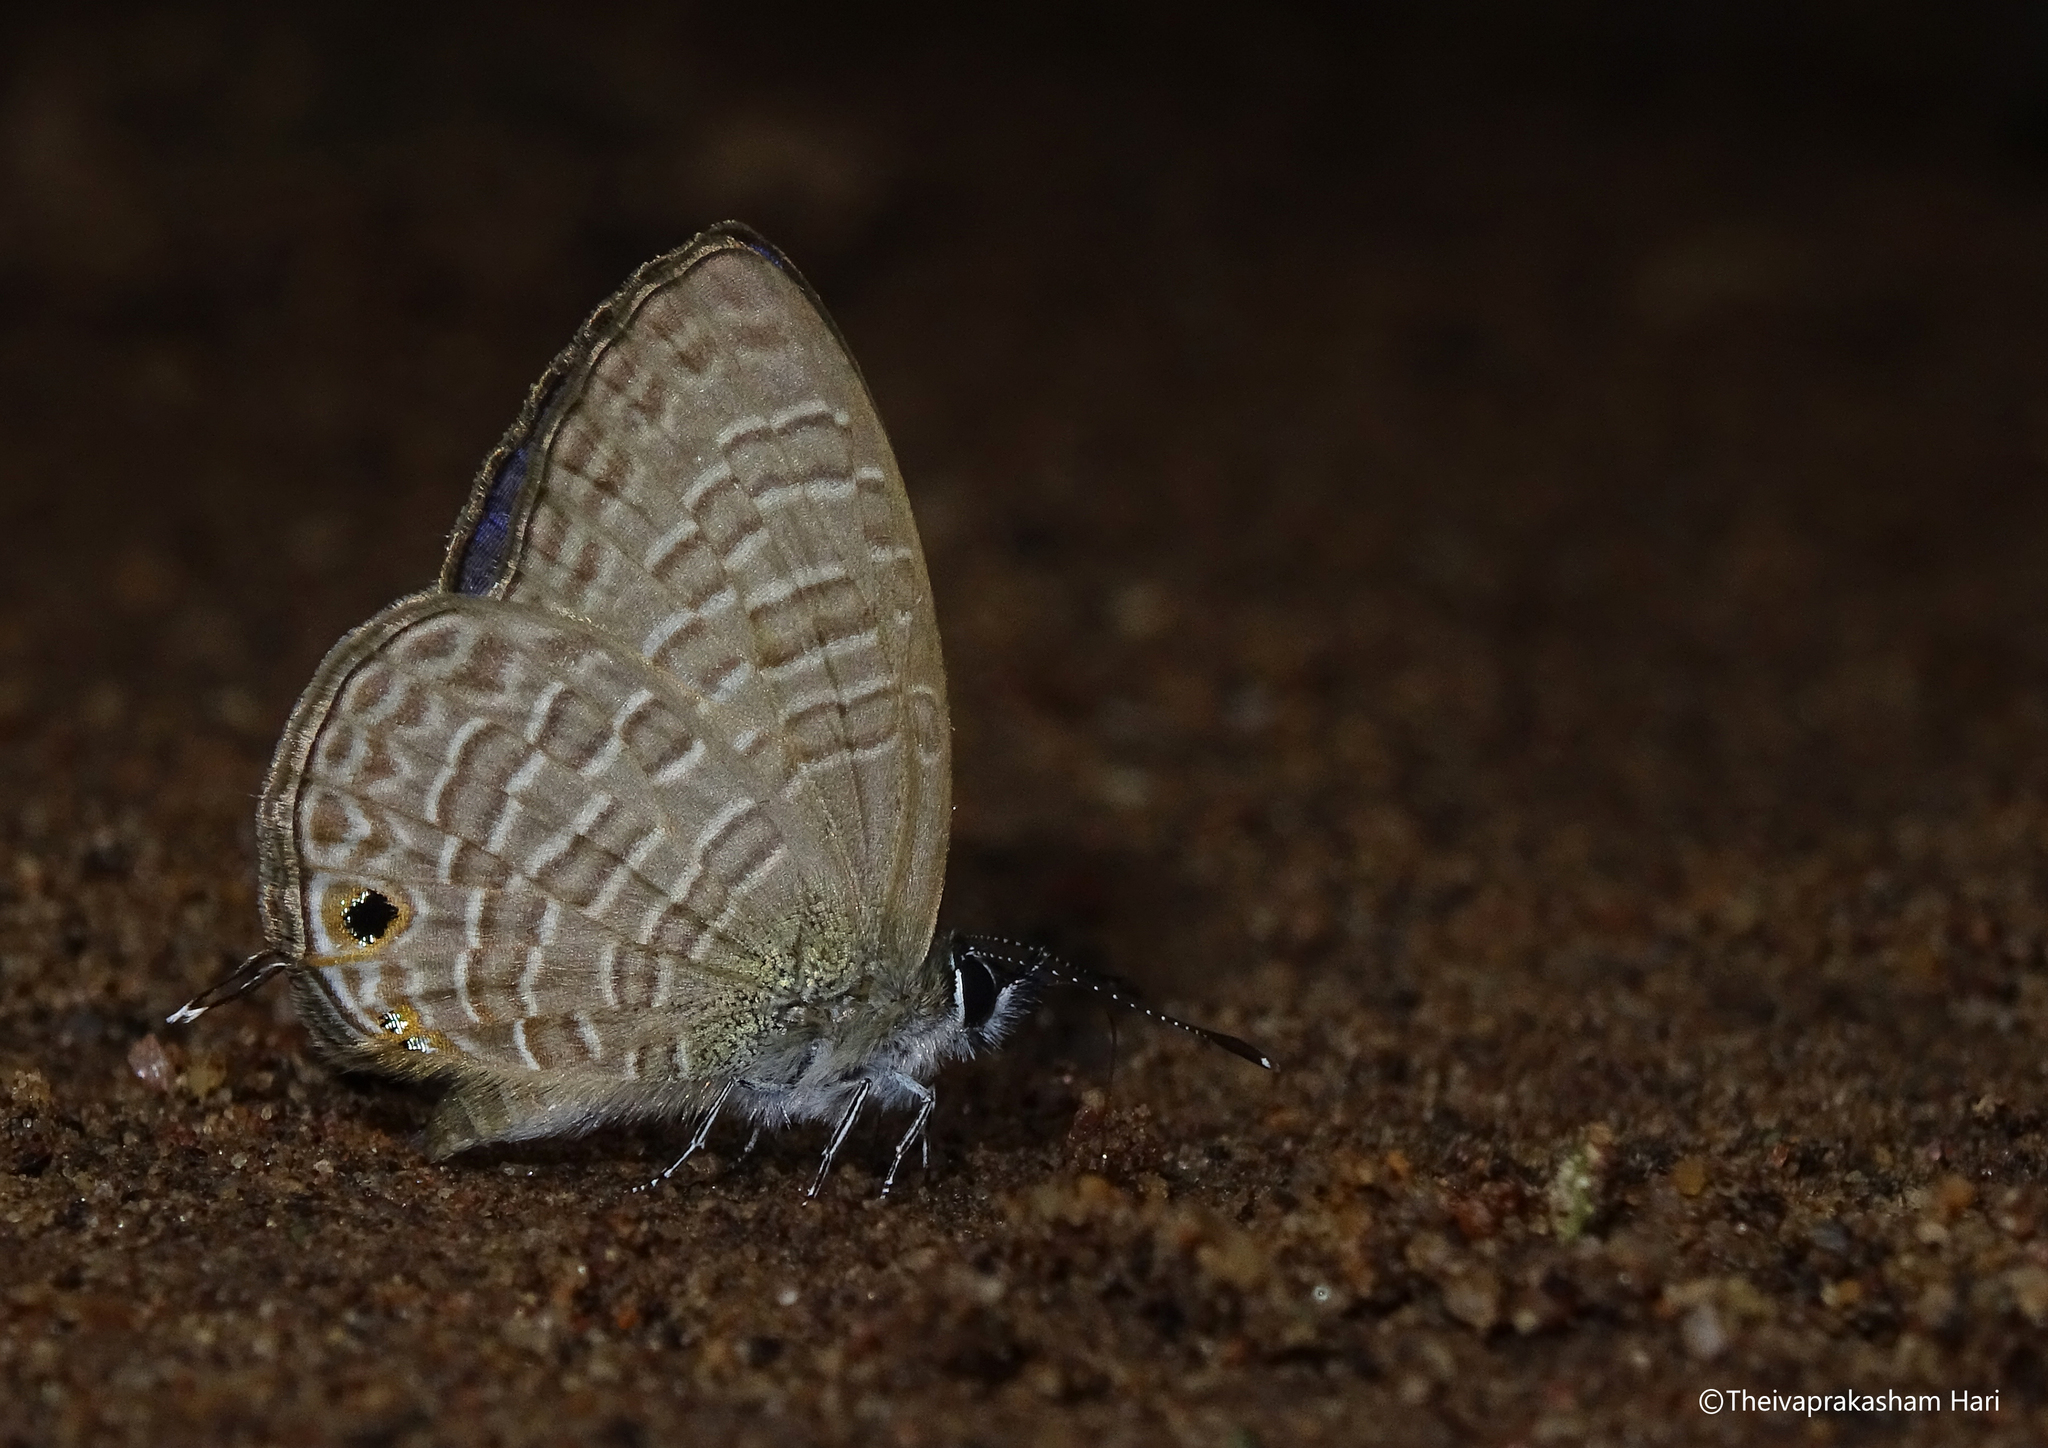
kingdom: Animalia
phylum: Arthropoda
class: Insecta
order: Lepidoptera
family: Lycaenidae
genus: Nacaduba
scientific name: Nacaduba beroe
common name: Opaque sixline blue
